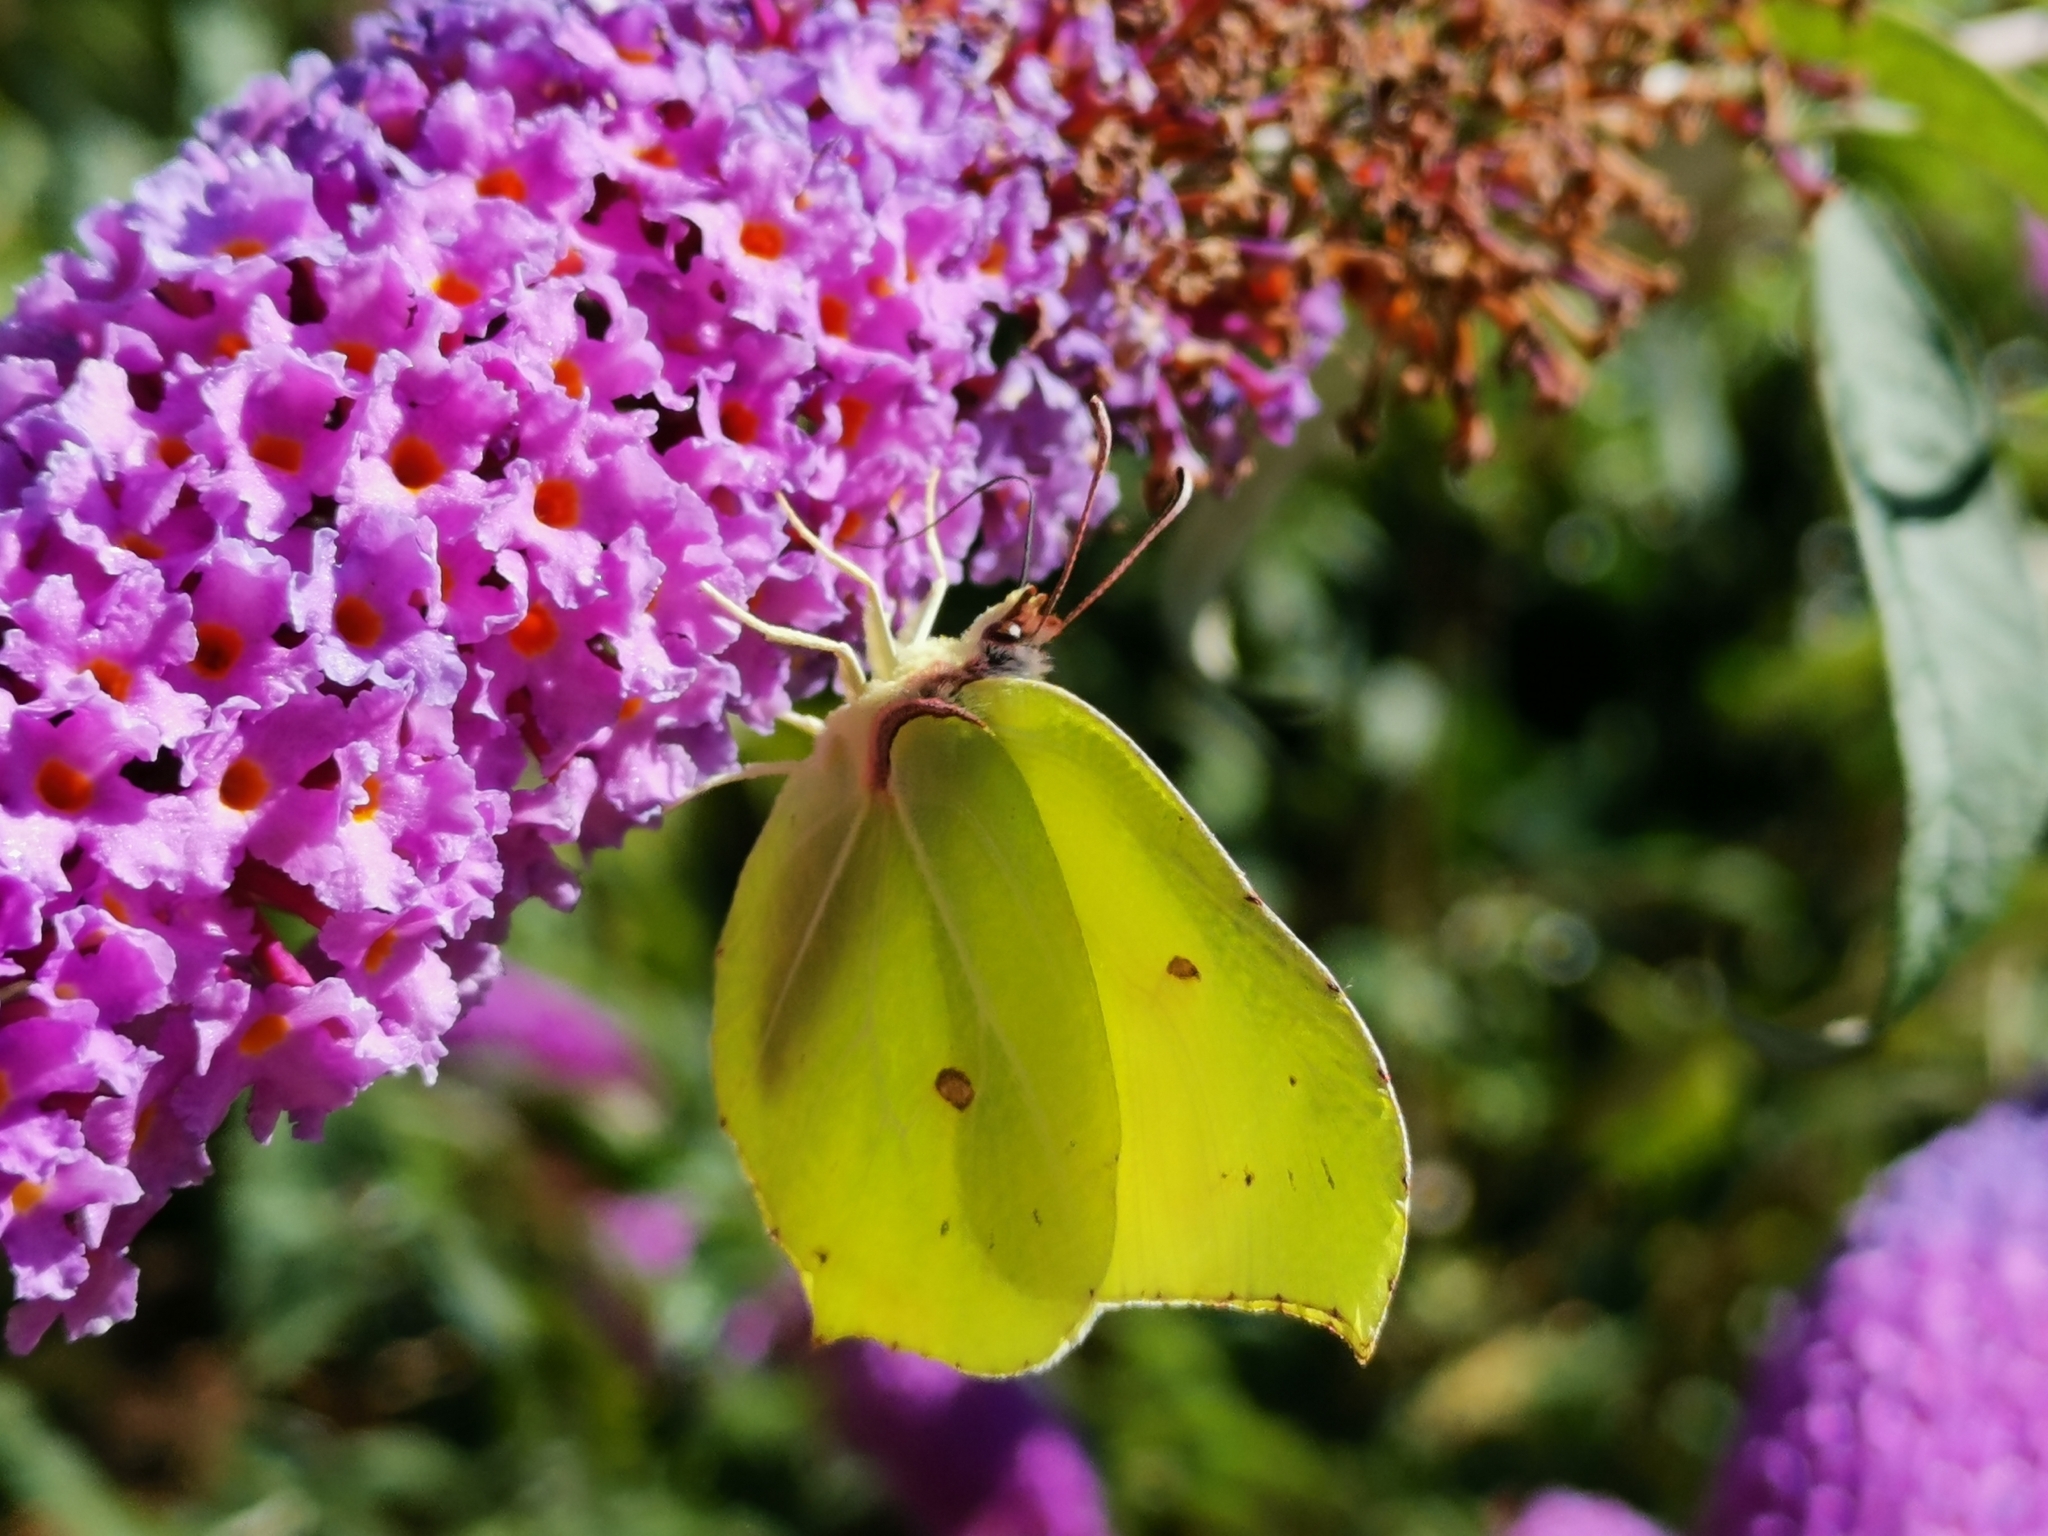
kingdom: Animalia
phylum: Arthropoda
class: Insecta
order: Lepidoptera
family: Pieridae
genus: Gonepteryx
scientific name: Gonepteryx rhamni
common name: Brimstone
